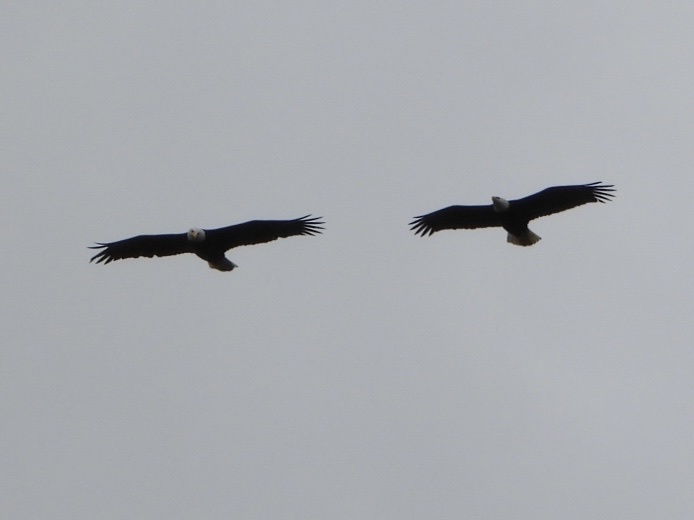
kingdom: Animalia
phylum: Chordata
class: Aves
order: Accipitriformes
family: Accipitridae
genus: Haliaeetus
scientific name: Haliaeetus leucocephalus
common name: Bald eagle
